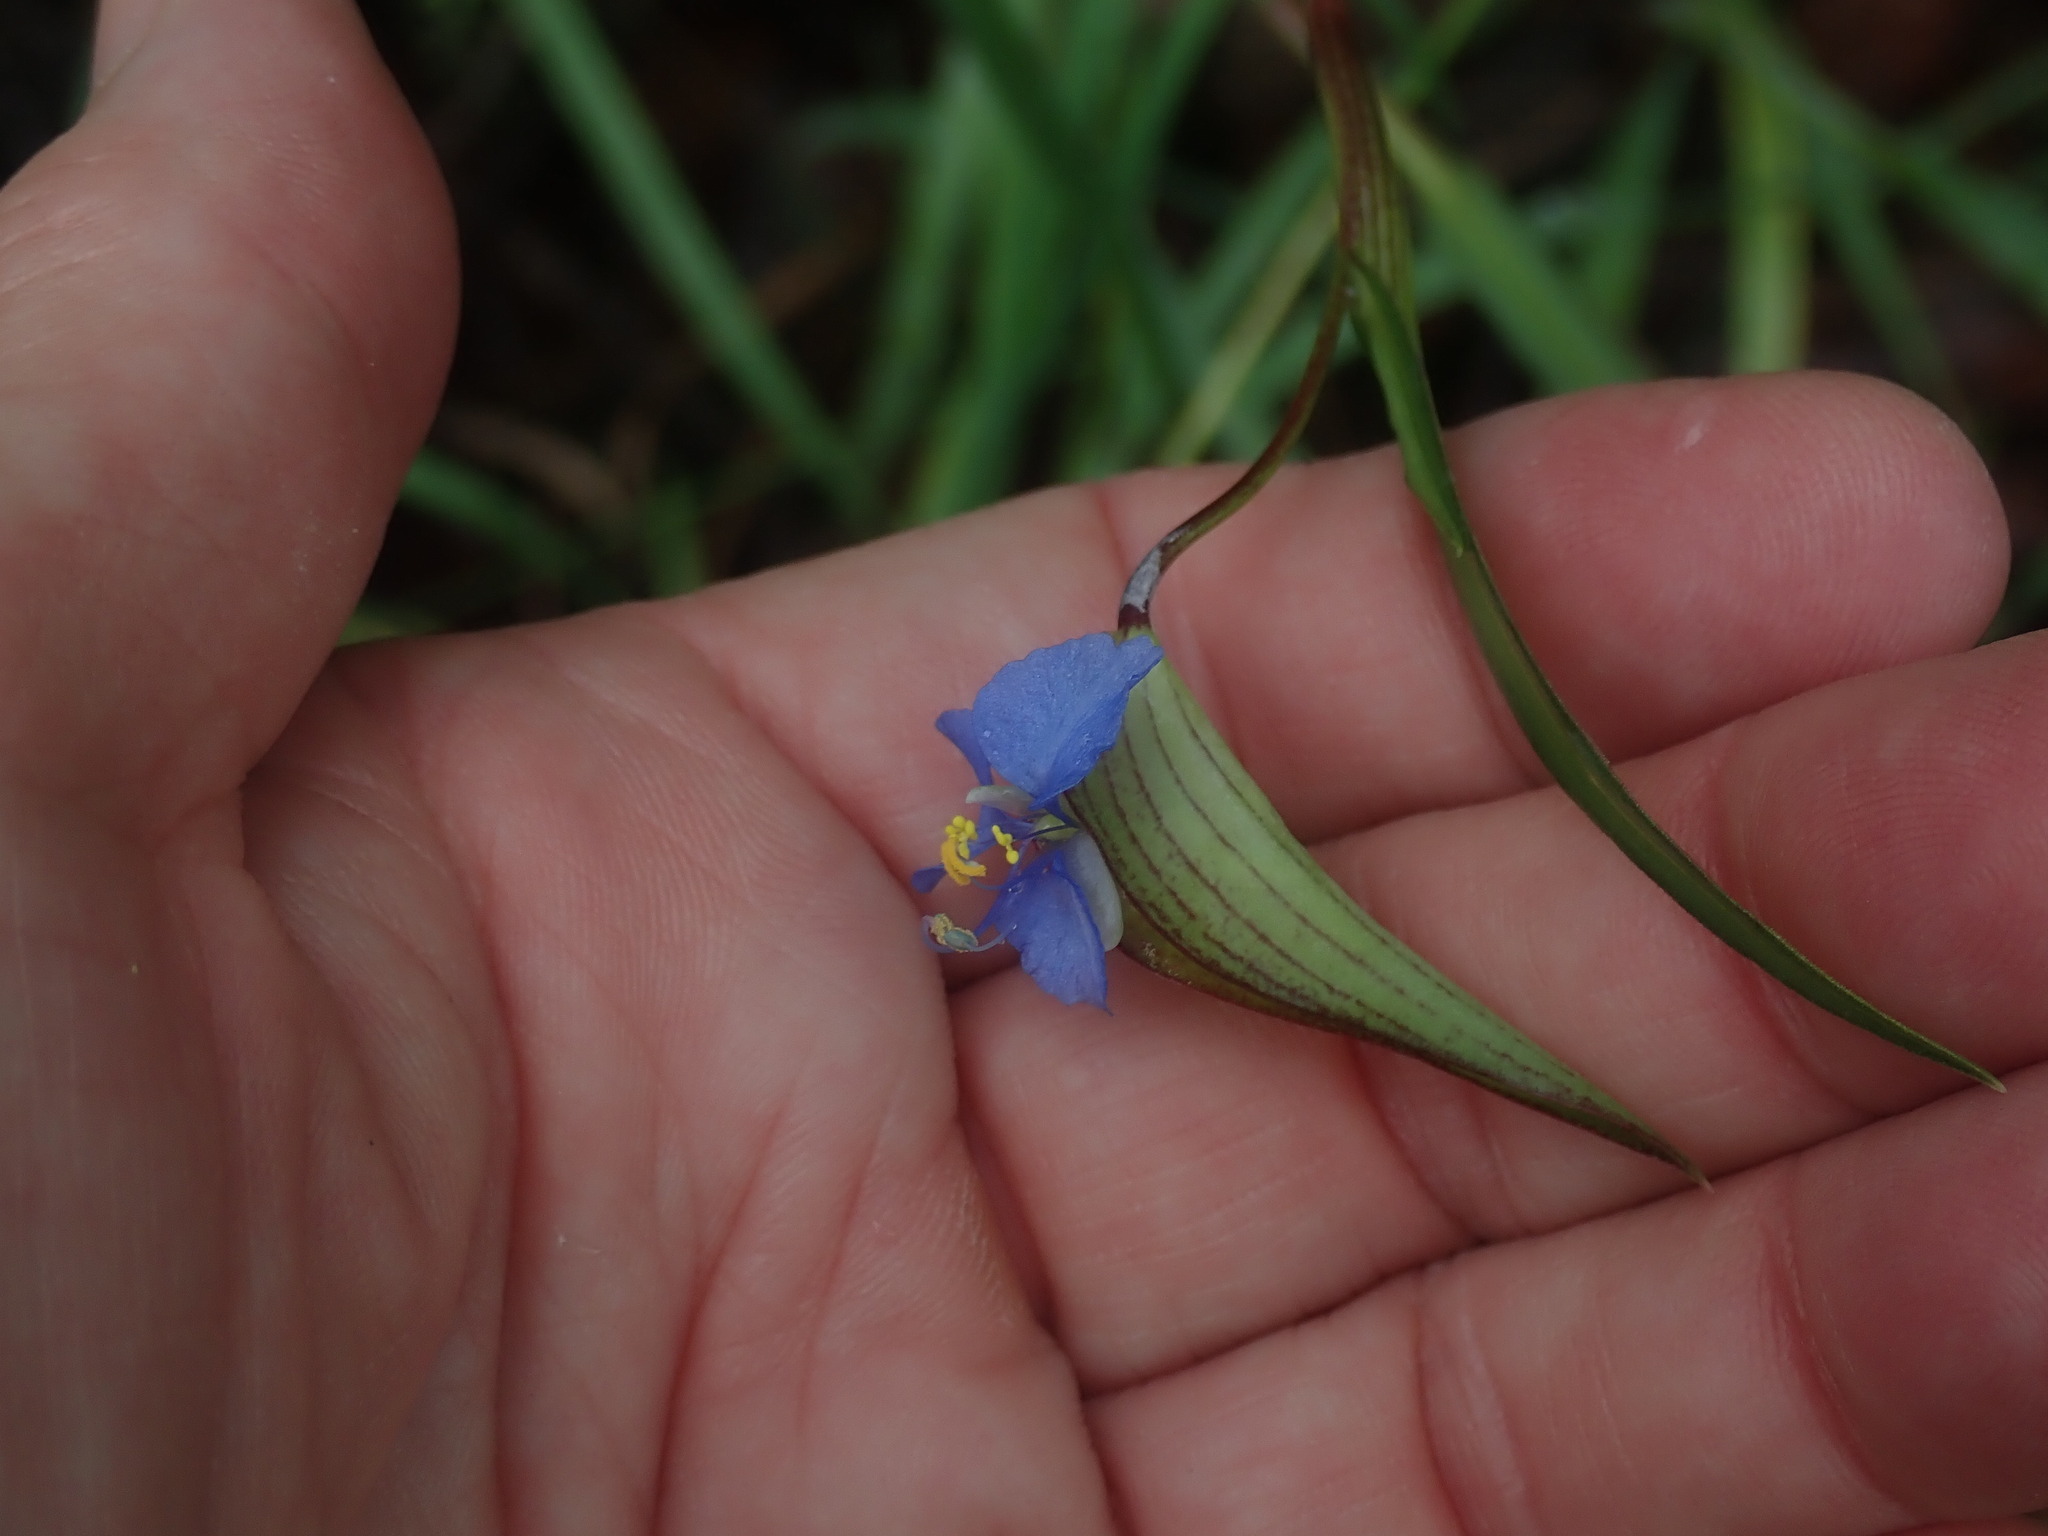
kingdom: Plantae
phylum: Tracheophyta
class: Liliopsida
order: Commelinales
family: Commelinaceae
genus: Commelina
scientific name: Commelina dianthifolia
